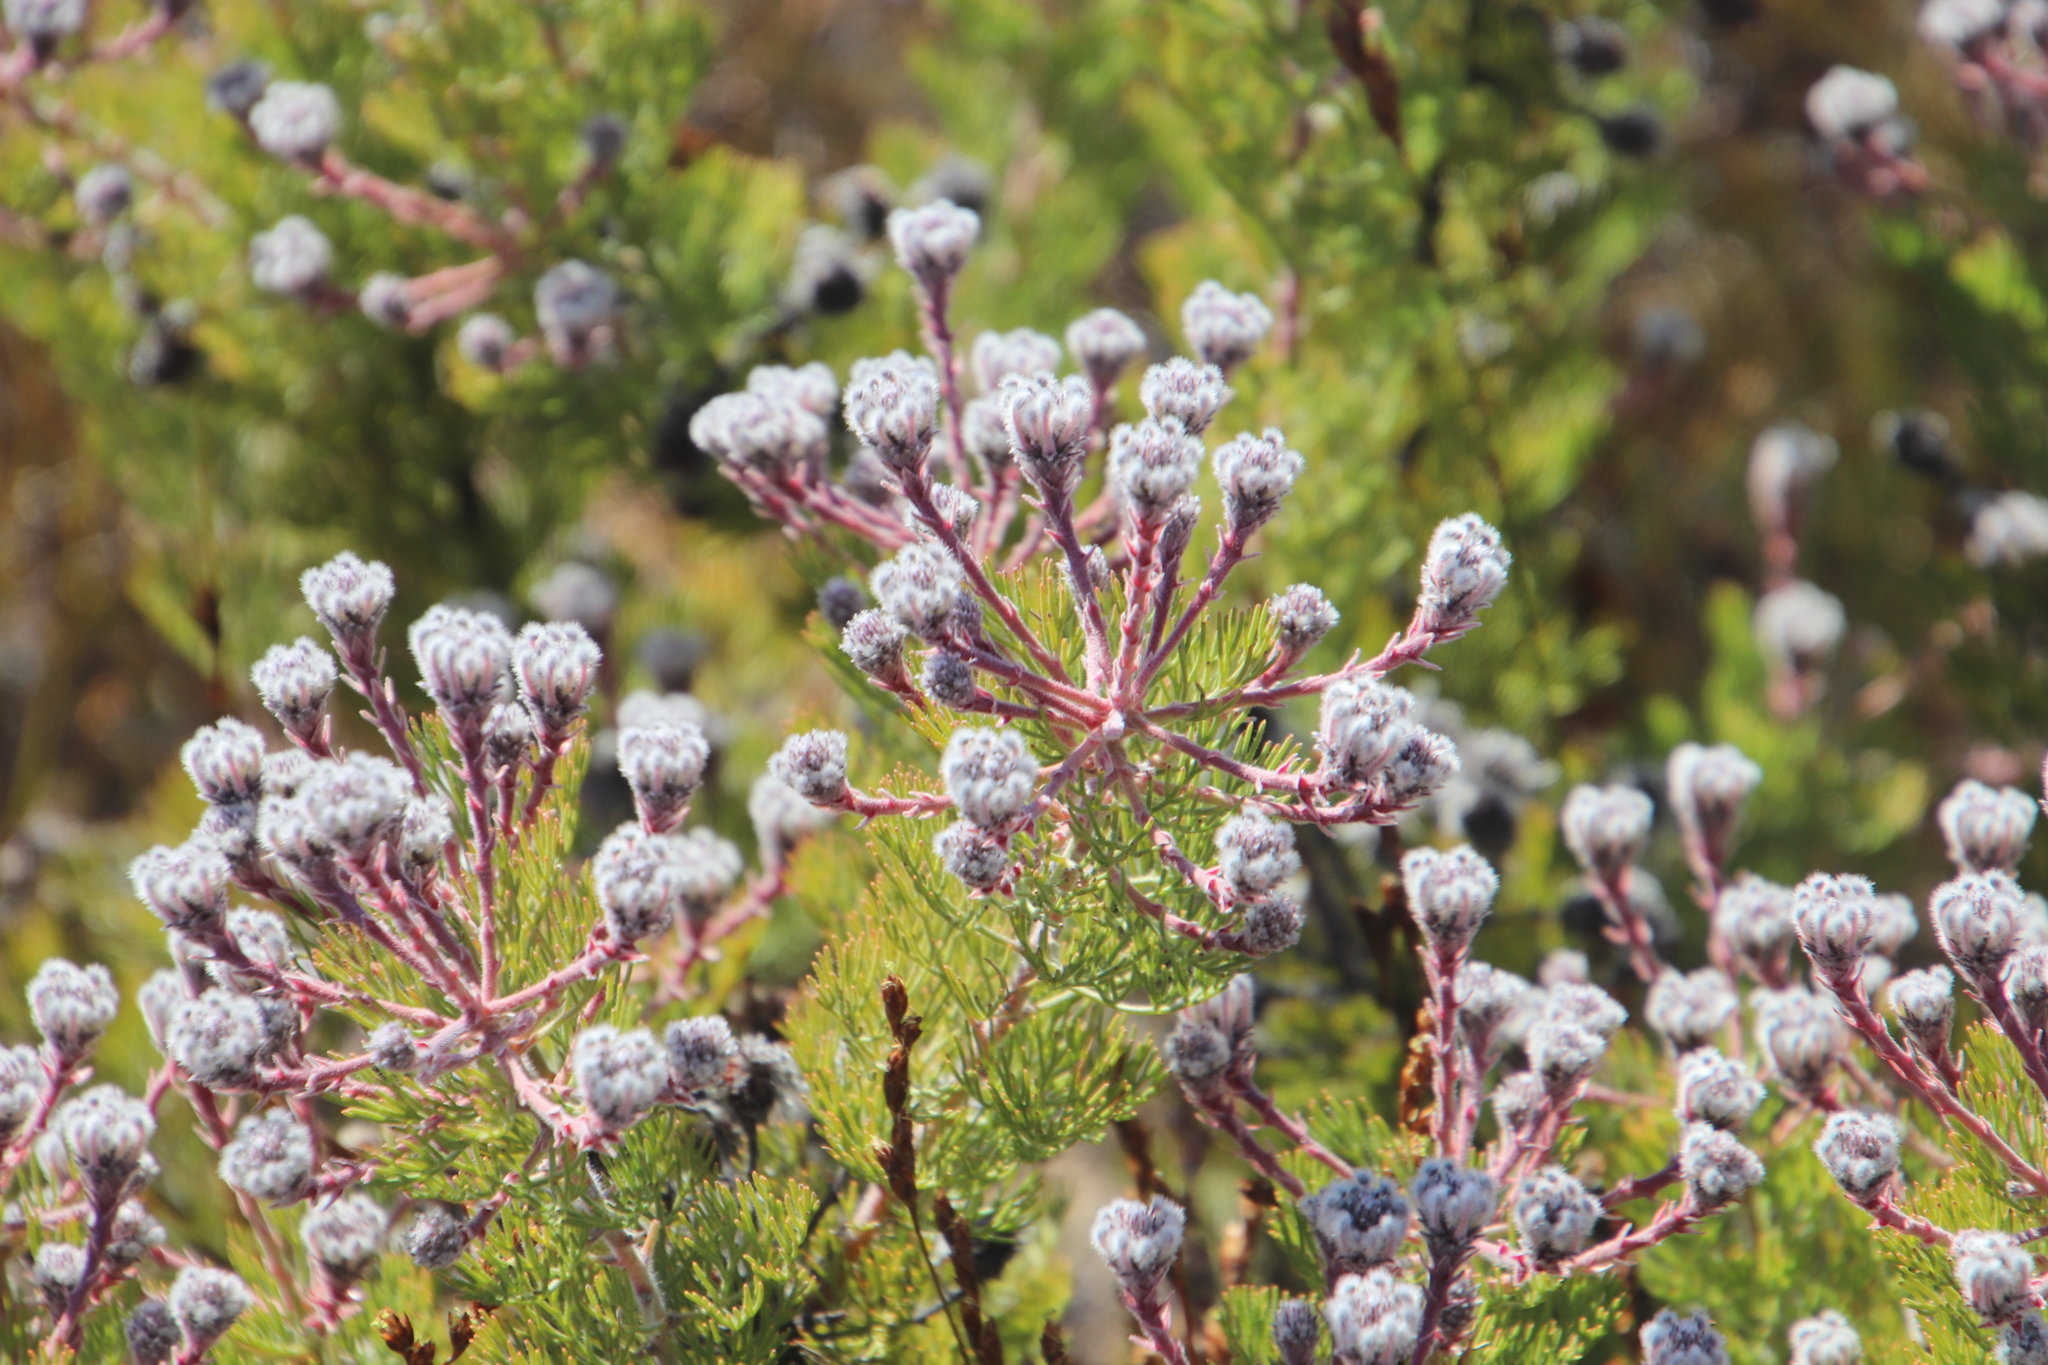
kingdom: Plantae
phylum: Tracheophyta
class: Magnoliopsida
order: Proteales
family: Proteaceae
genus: Serruria
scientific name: Serruria aitonii
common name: Marshmallow spiderhead
